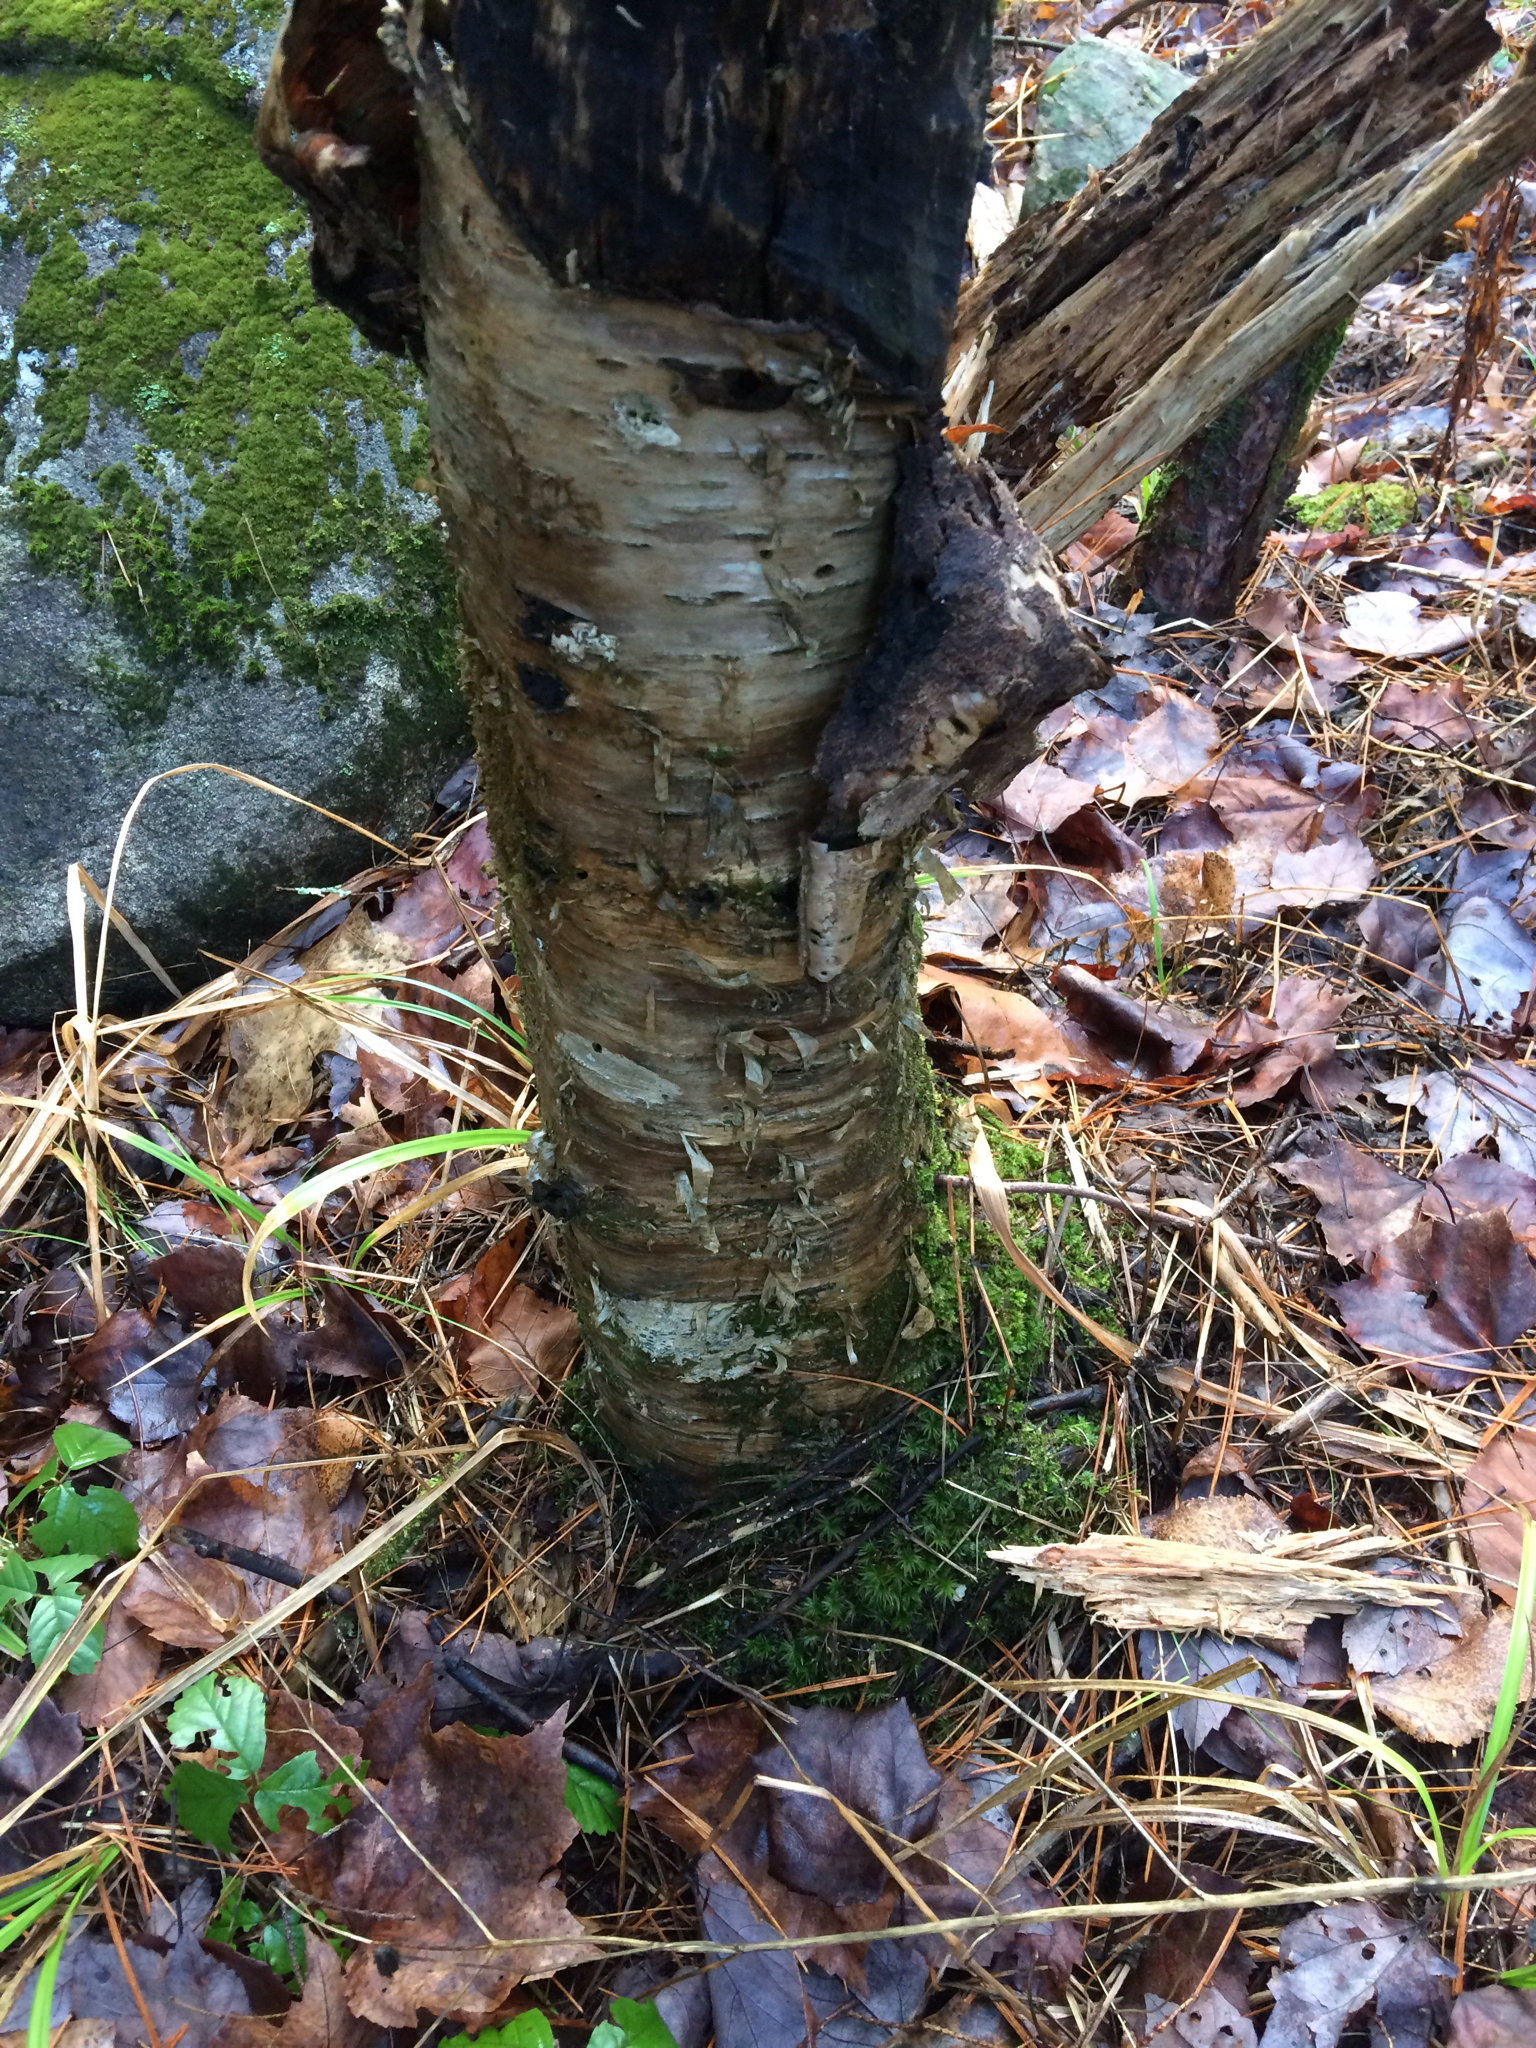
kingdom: Plantae
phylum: Tracheophyta
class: Magnoliopsida
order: Fagales
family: Betulaceae
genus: Betula
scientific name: Betula alleghaniensis
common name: Yellow birch
